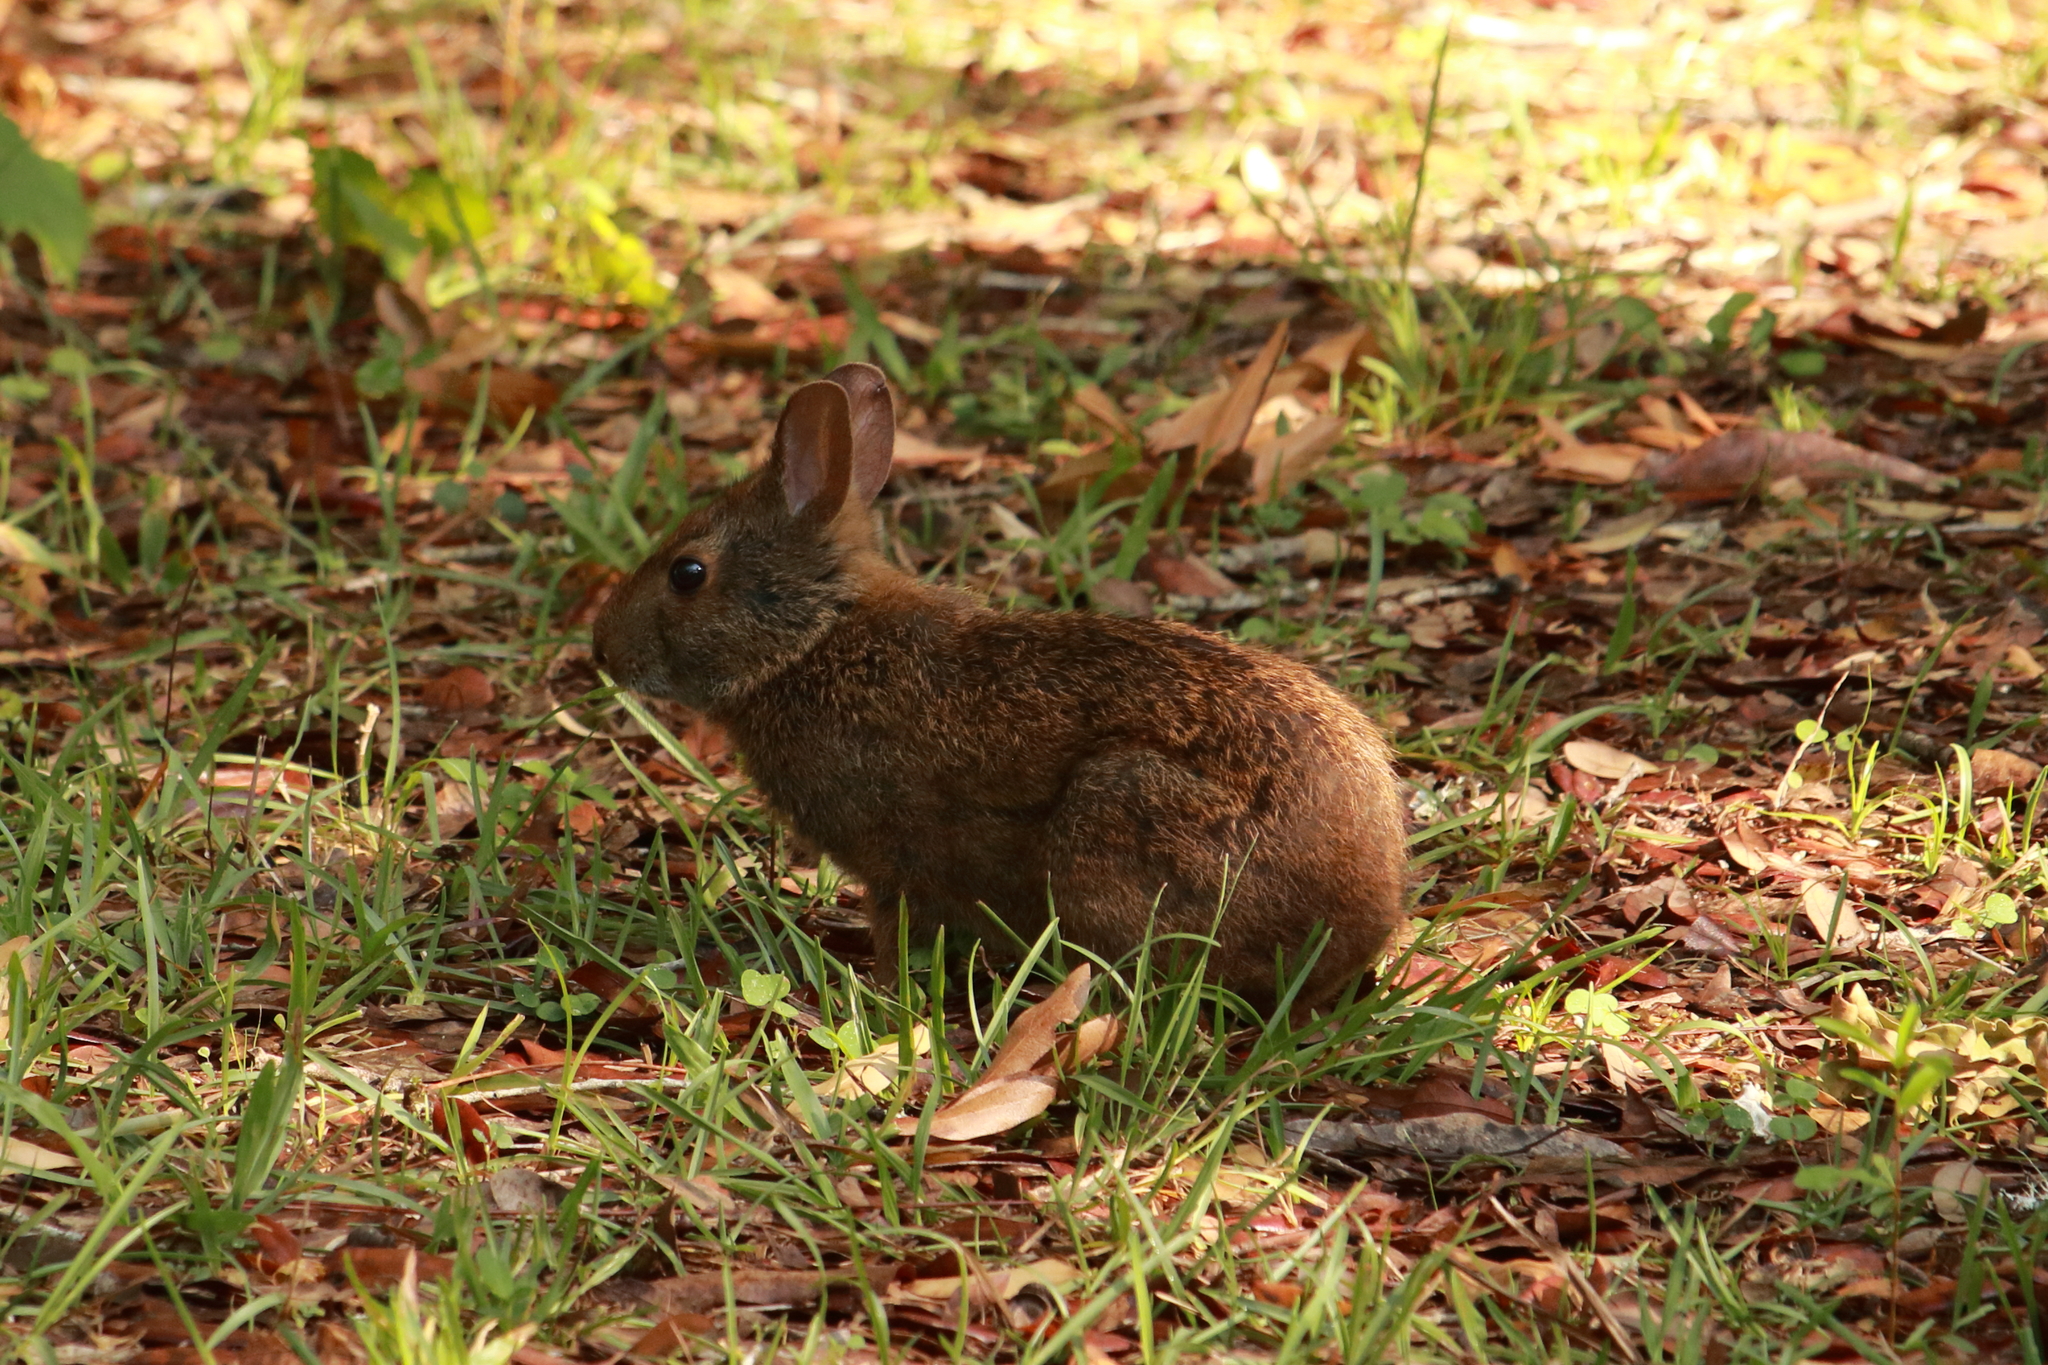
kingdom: Animalia
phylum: Chordata
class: Mammalia
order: Lagomorpha
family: Leporidae
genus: Sylvilagus
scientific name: Sylvilagus palustris
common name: Marsh rabbit
